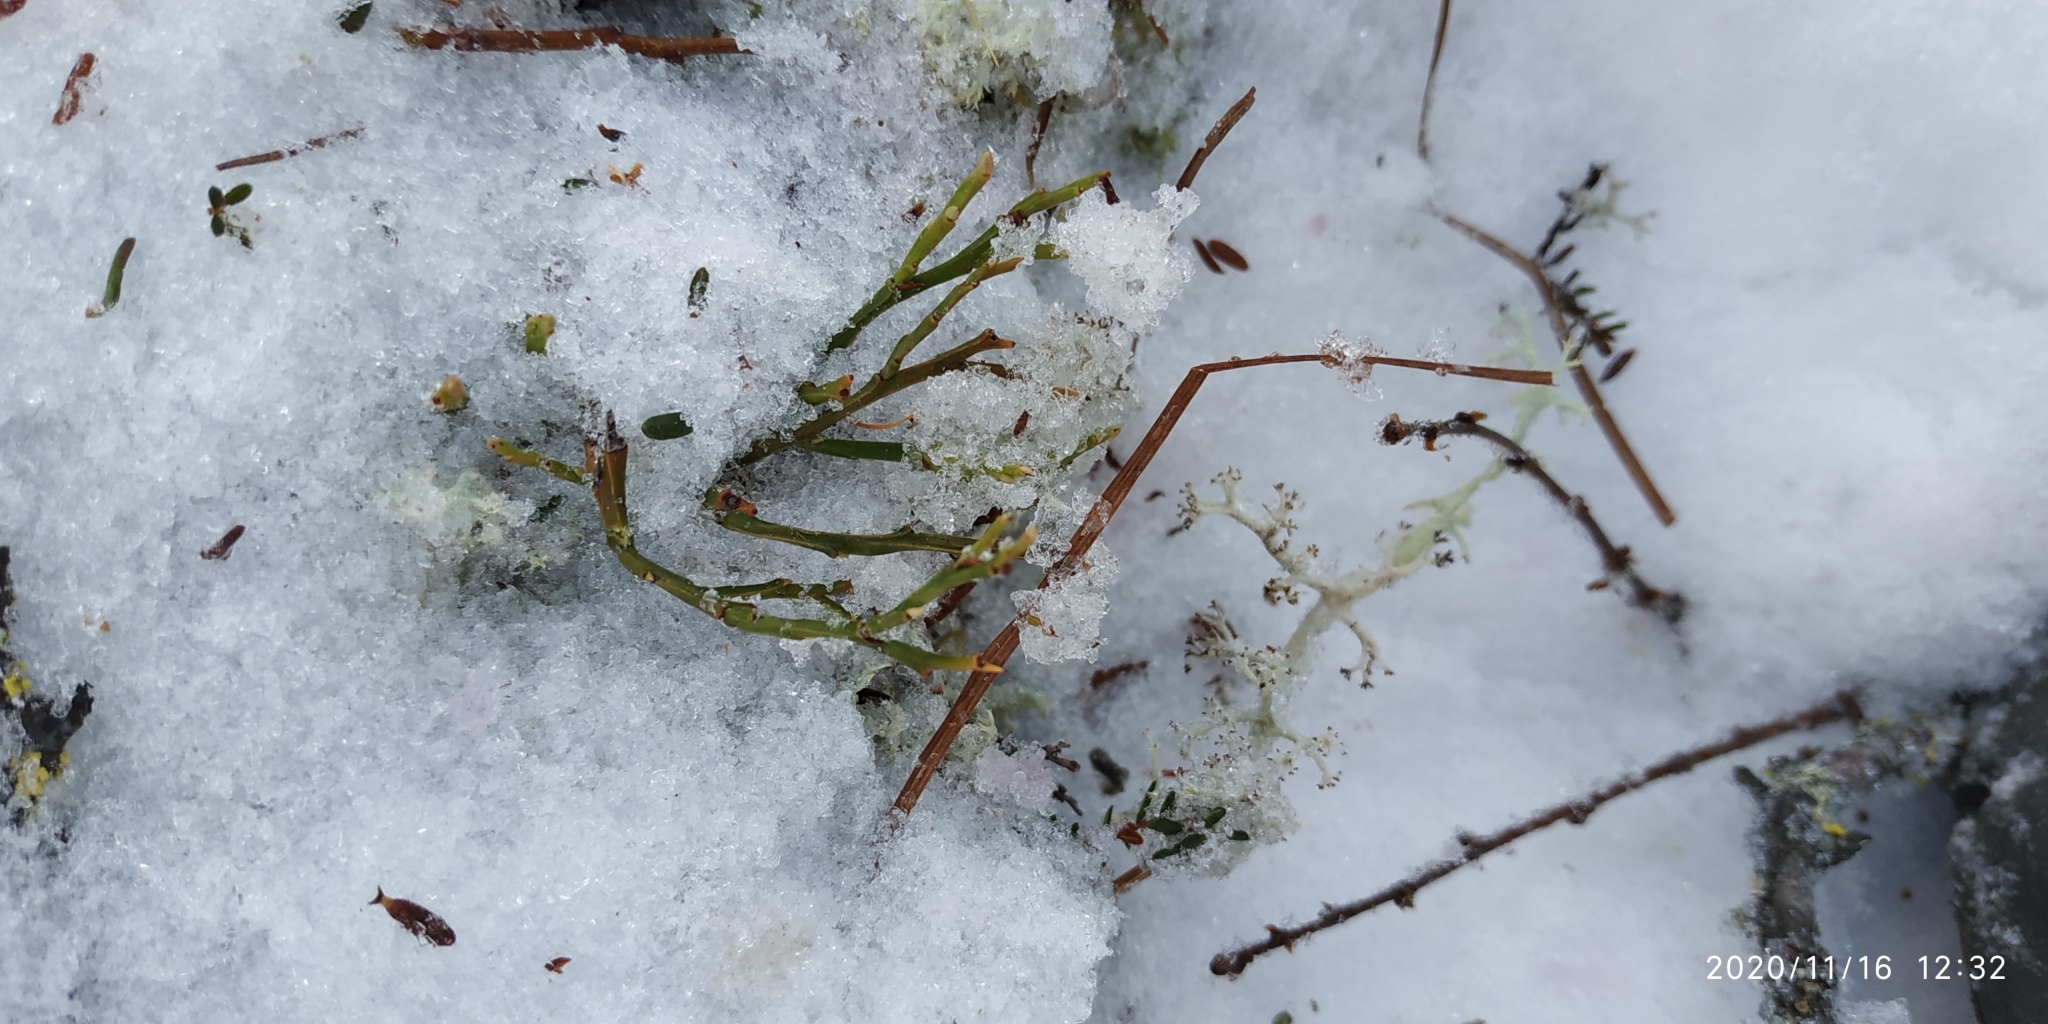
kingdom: Plantae
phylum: Tracheophyta
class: Magnoliopsida
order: Ericales
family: Ericaceae
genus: Vaccinium
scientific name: Vaccinium myrtillus
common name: Bilberry
